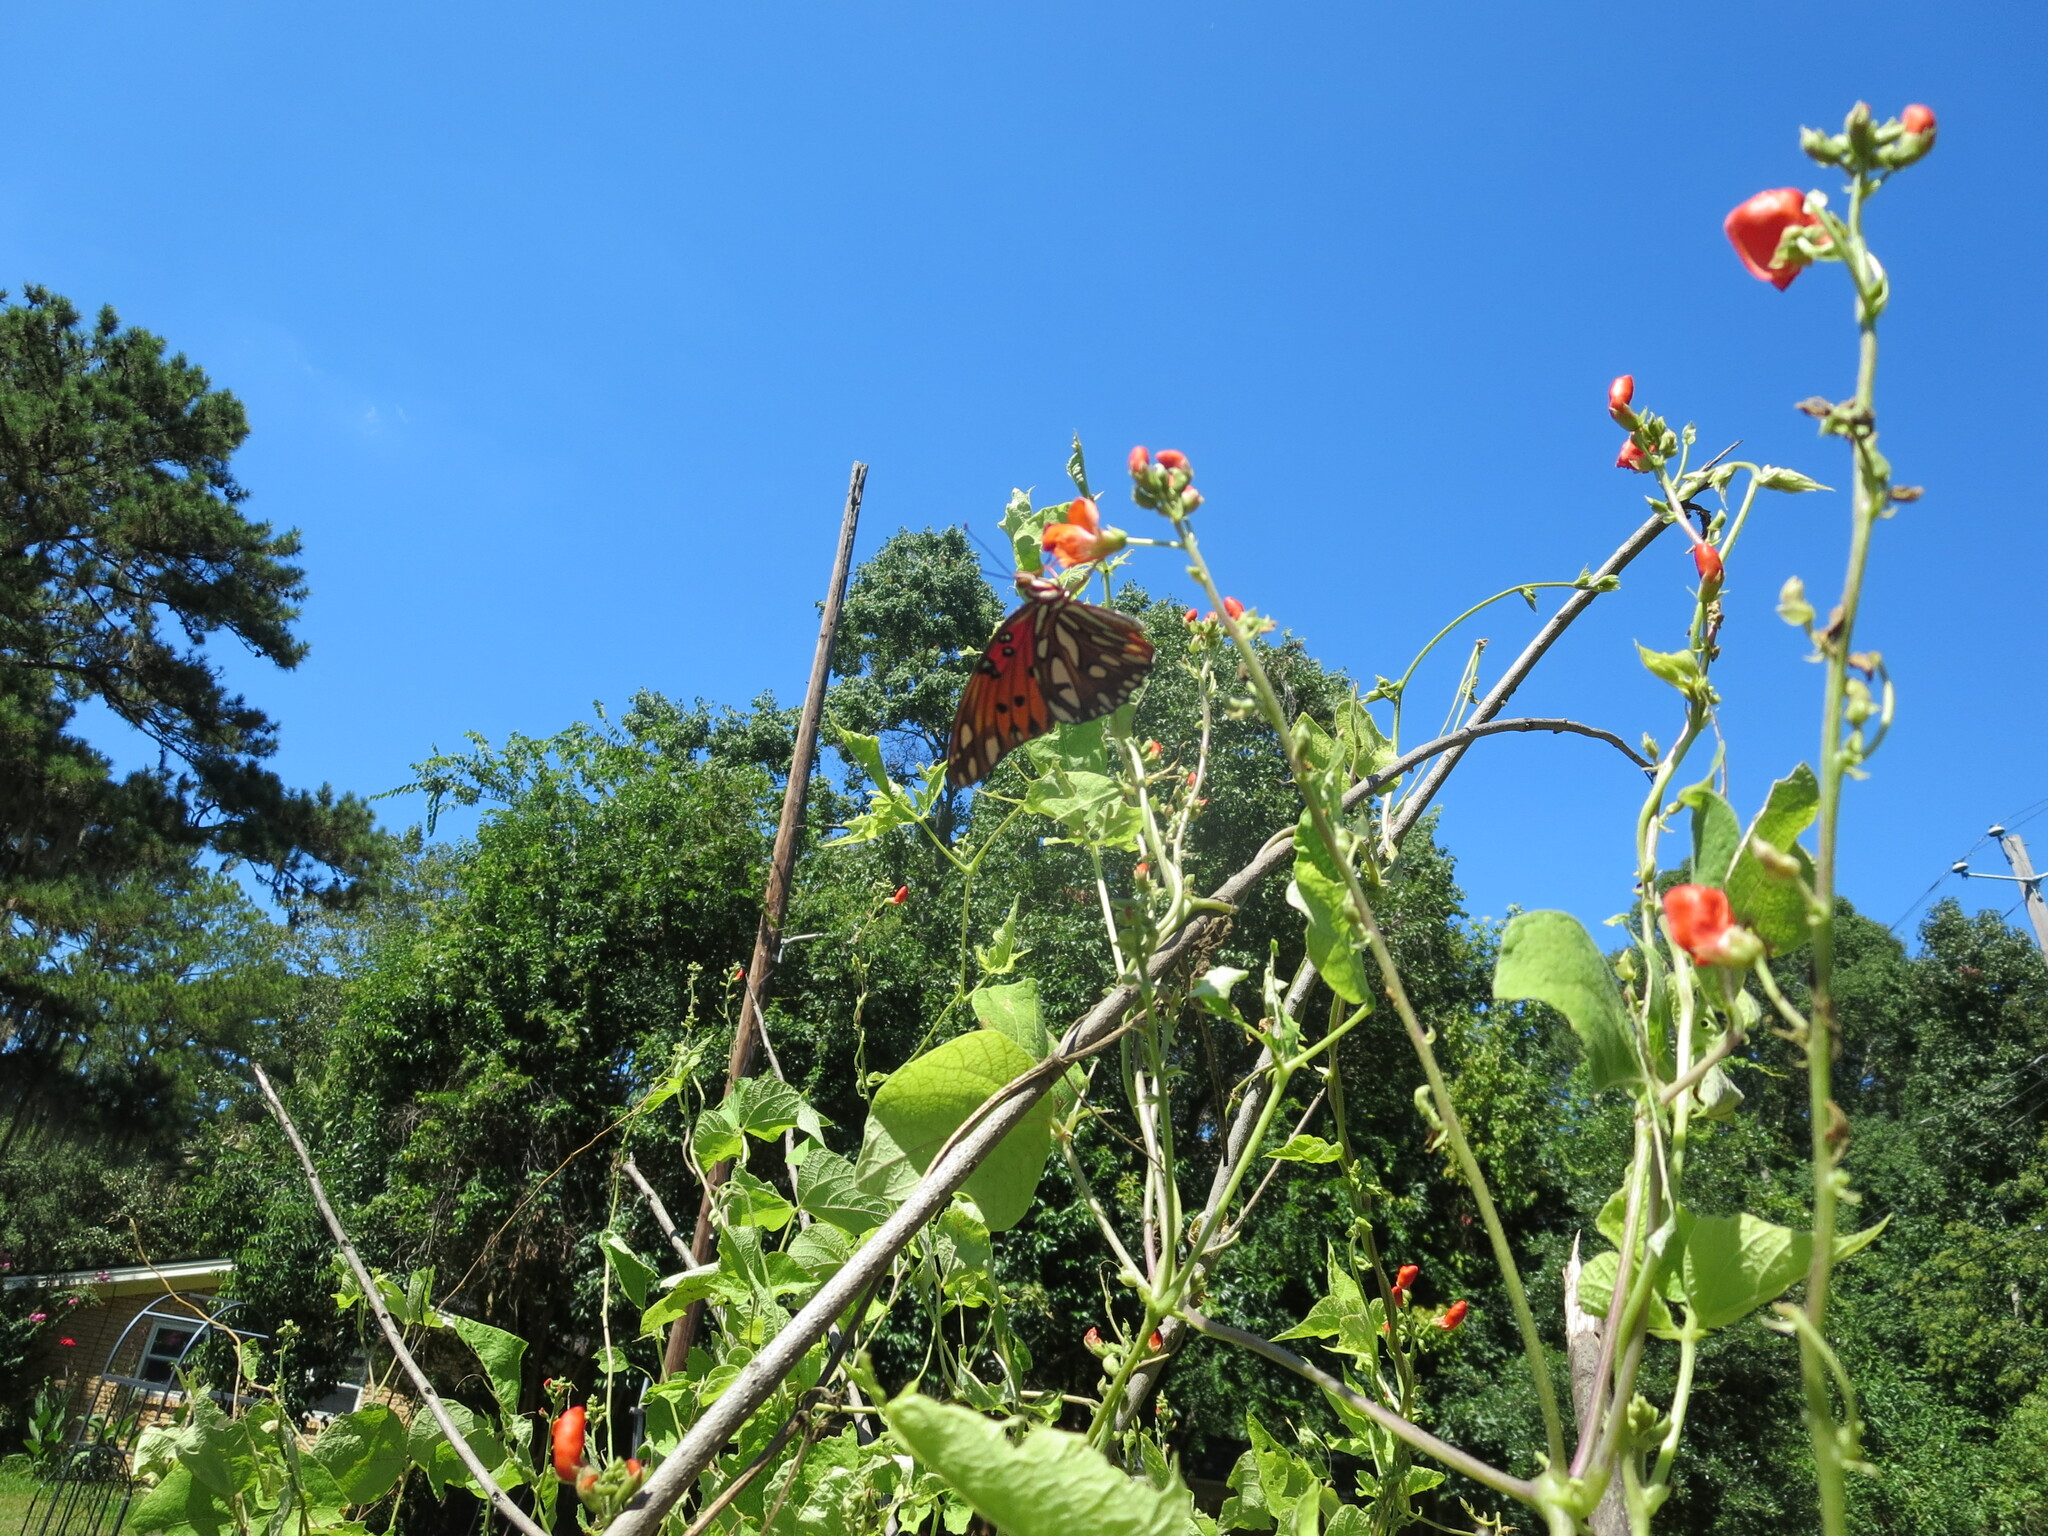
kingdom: Animalia
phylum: Arthropoda
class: Insecta
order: Lepidoptera
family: Nymphalidae
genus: Dione
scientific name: Dione vanillae
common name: Gulf fritillary
